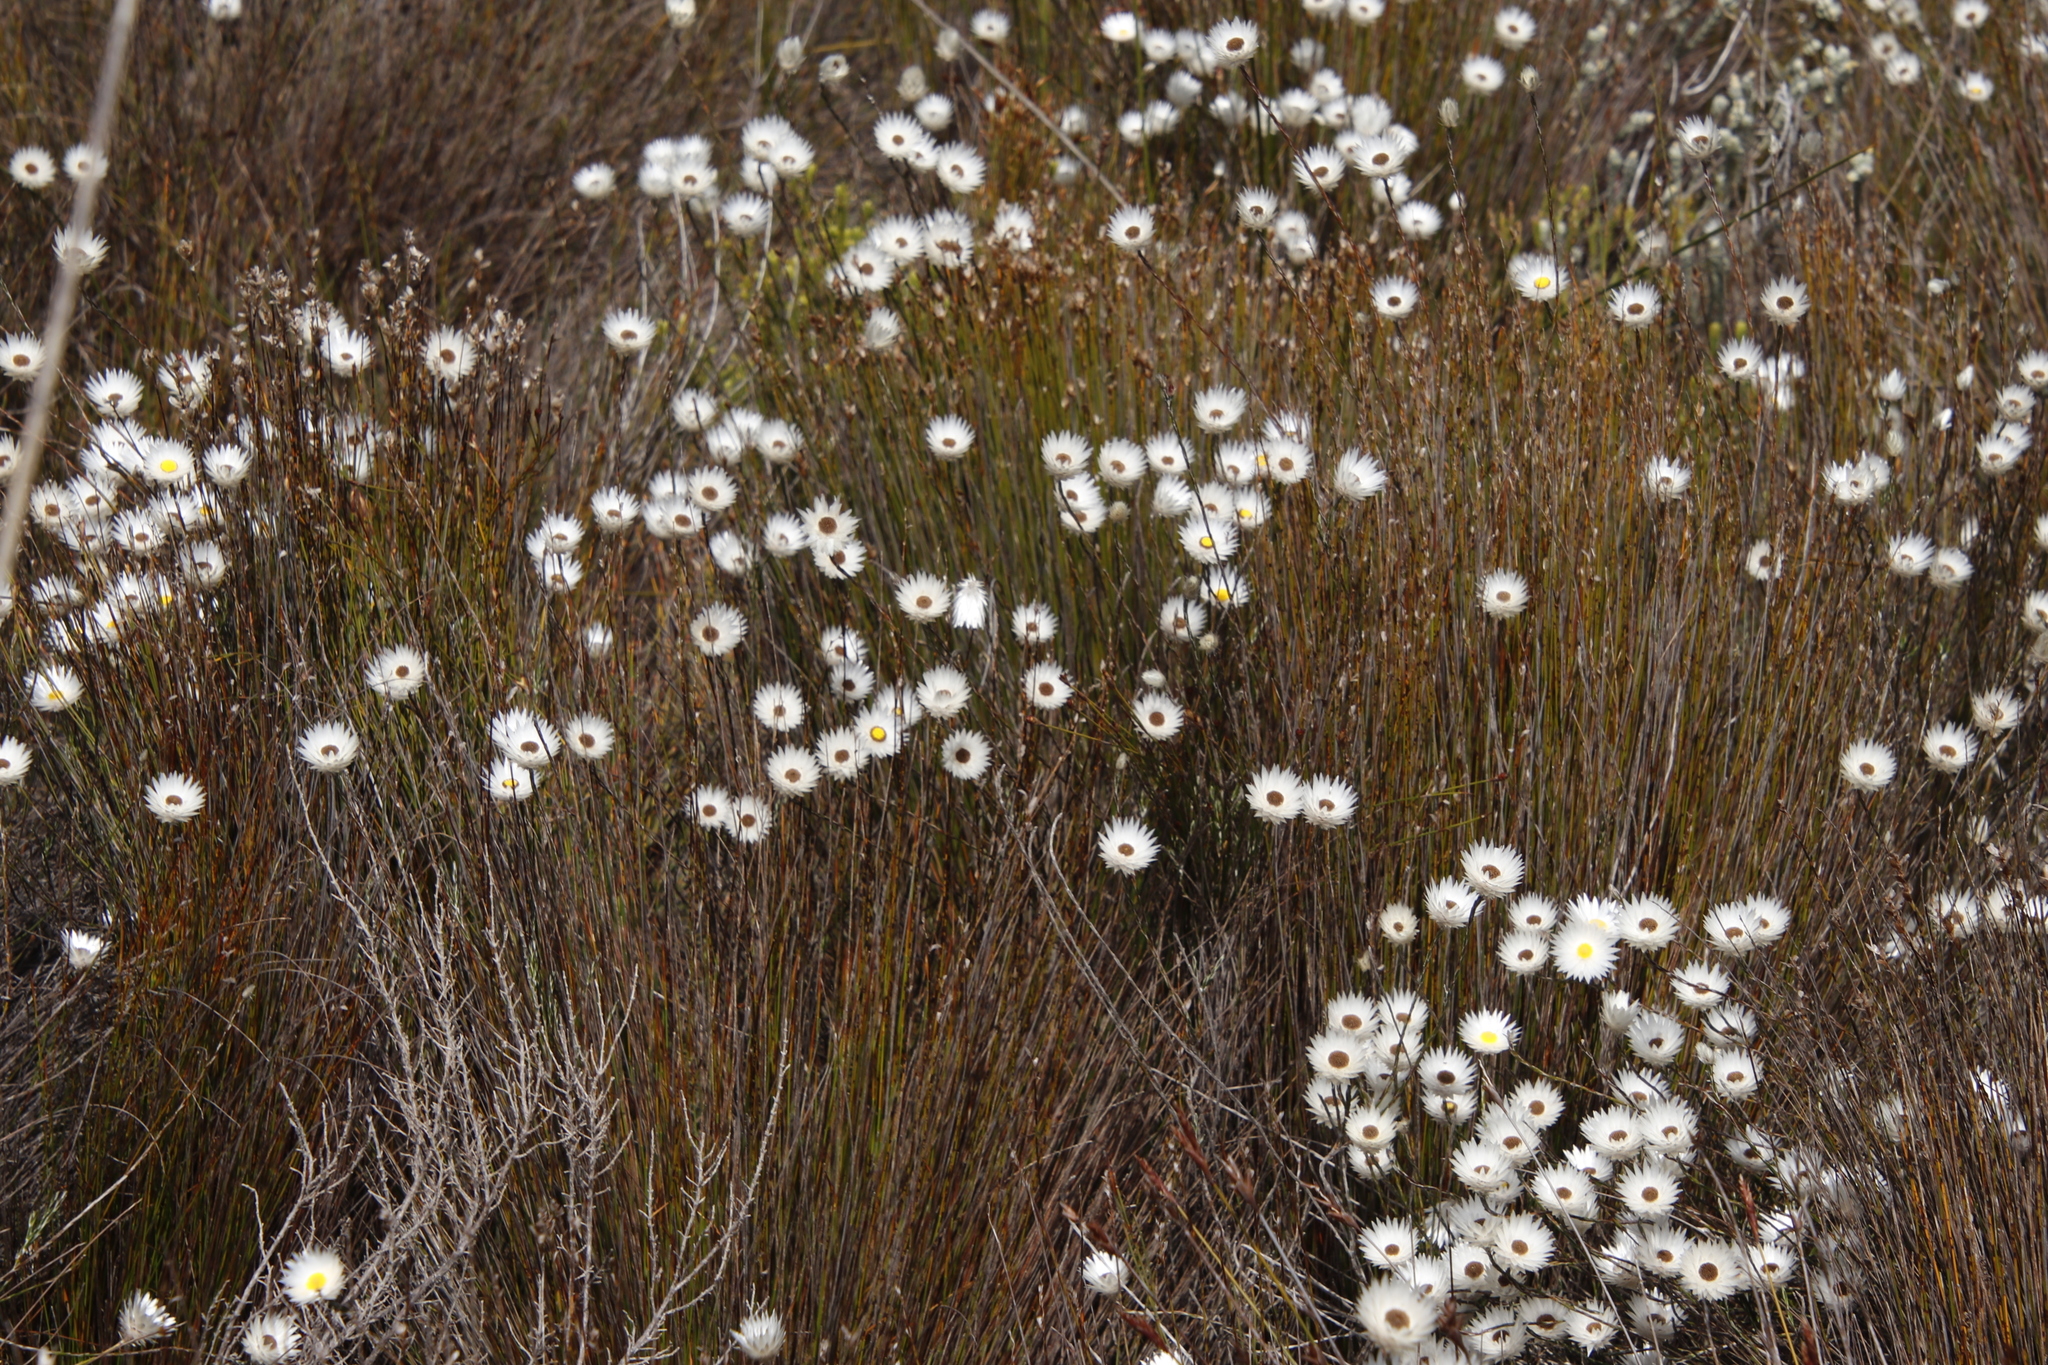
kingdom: Plantae
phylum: Tracheophyta
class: Magnoliopsida
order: Asterales
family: Asteraceae
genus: Edmondia
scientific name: Edmondia sesamoides
